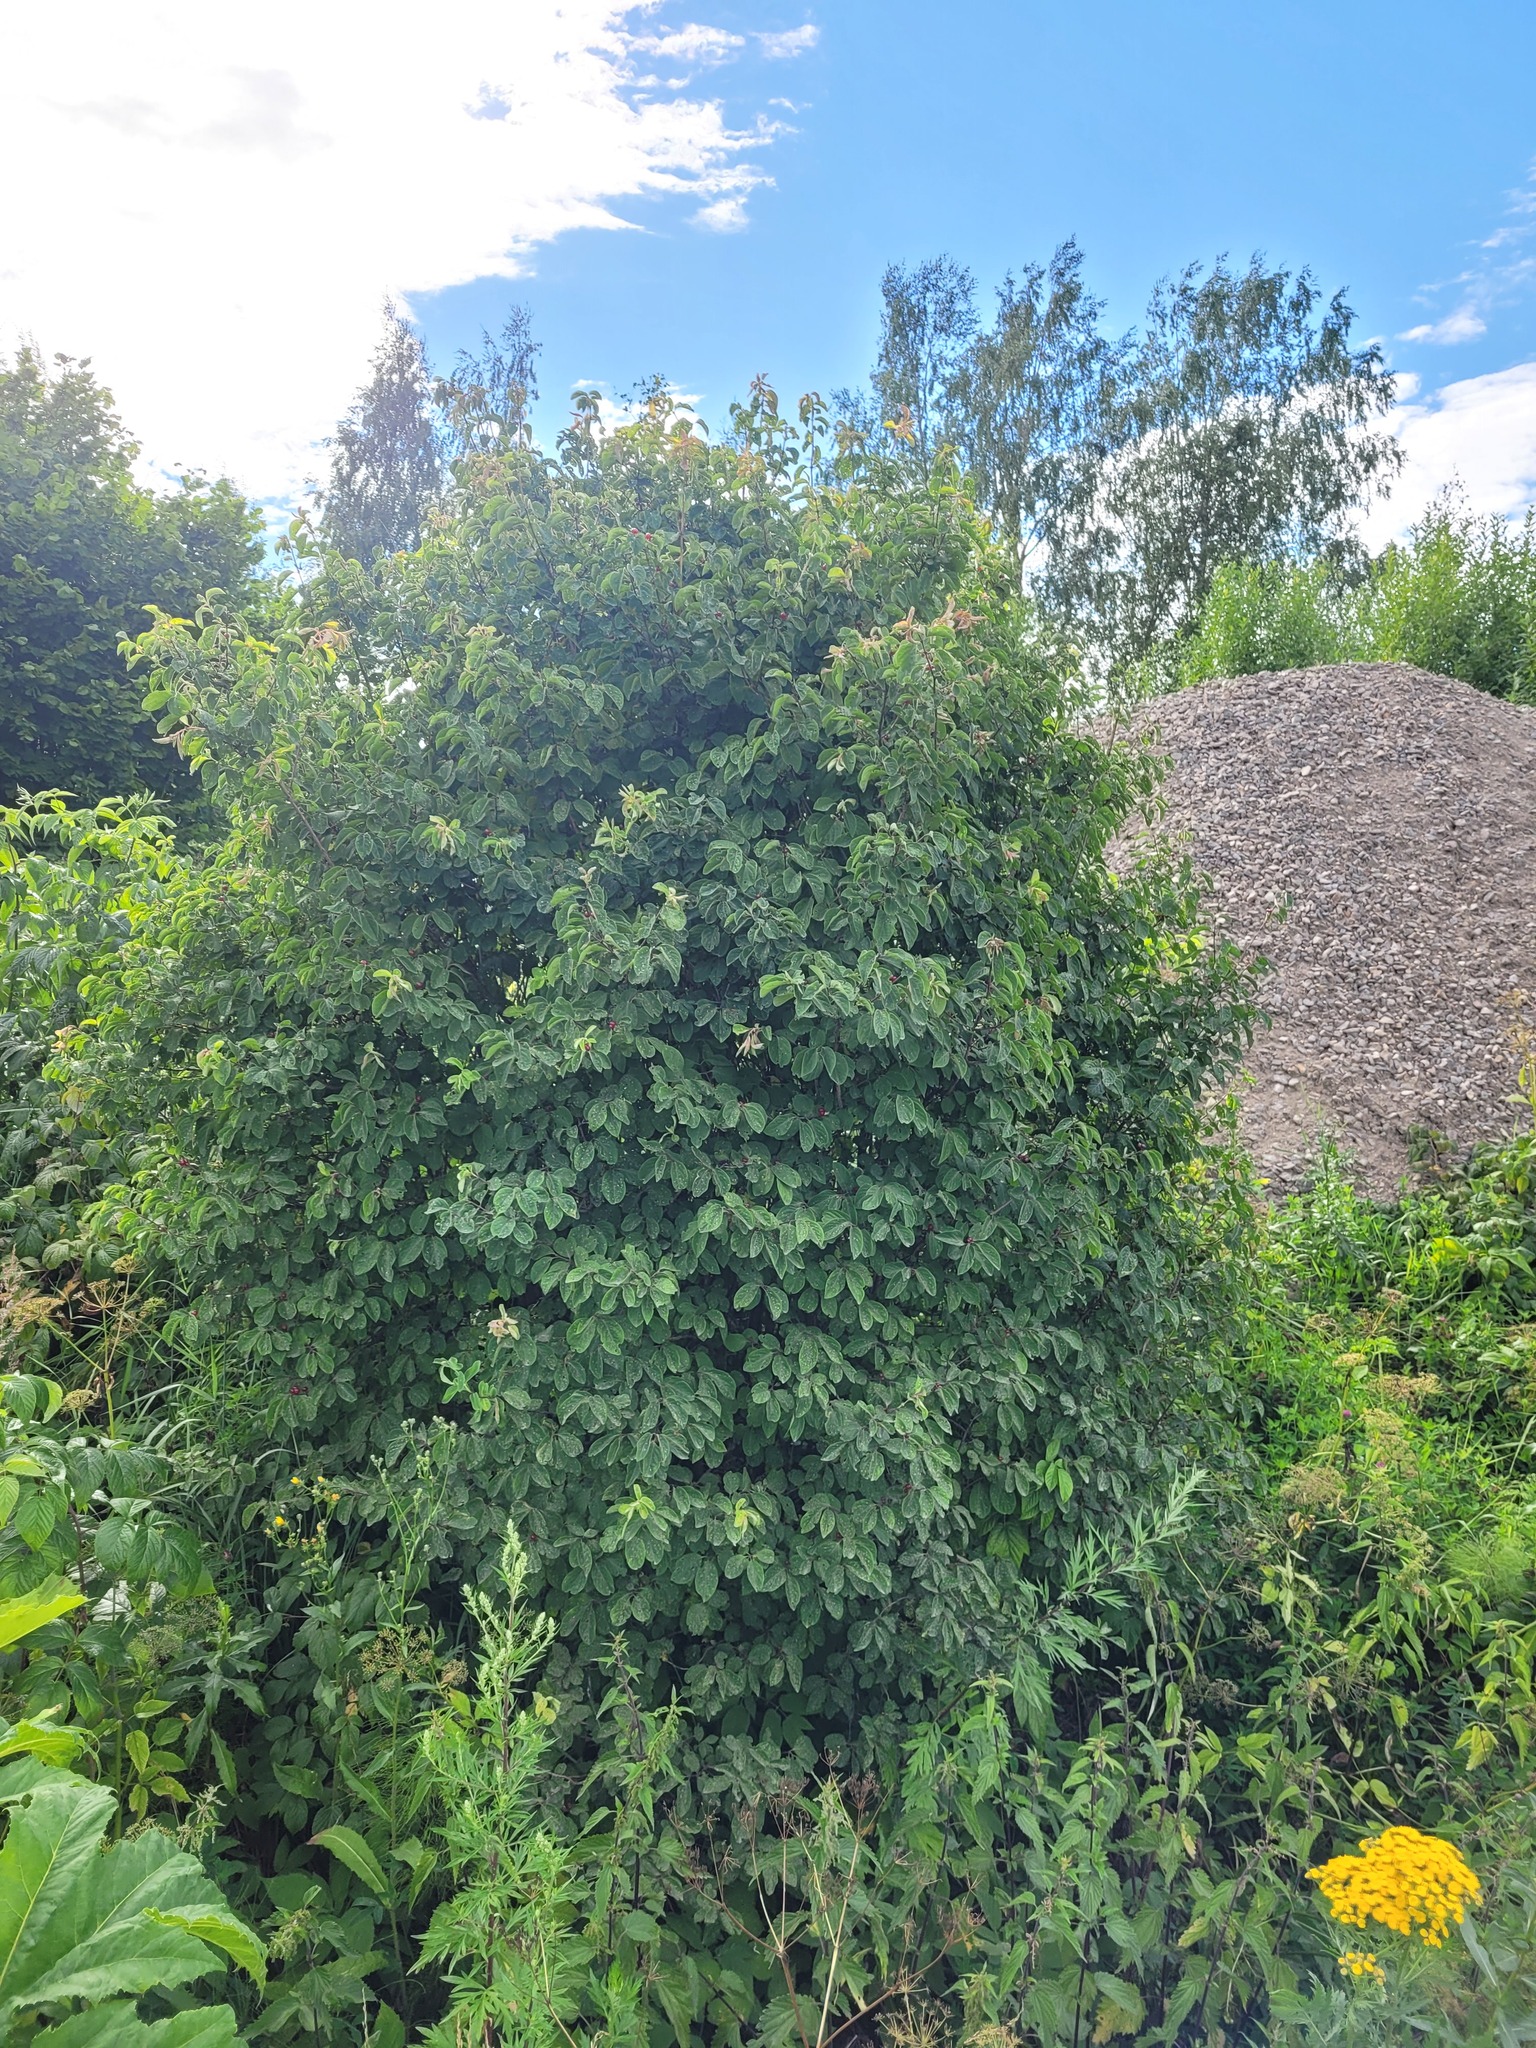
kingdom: Plantae
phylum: Tracheophyta
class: Magnoliopsida
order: Dipsacales
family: Caprifoliaceae
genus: Lonicera
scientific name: Lonicera xylosteum
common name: Fly honeysuckle
